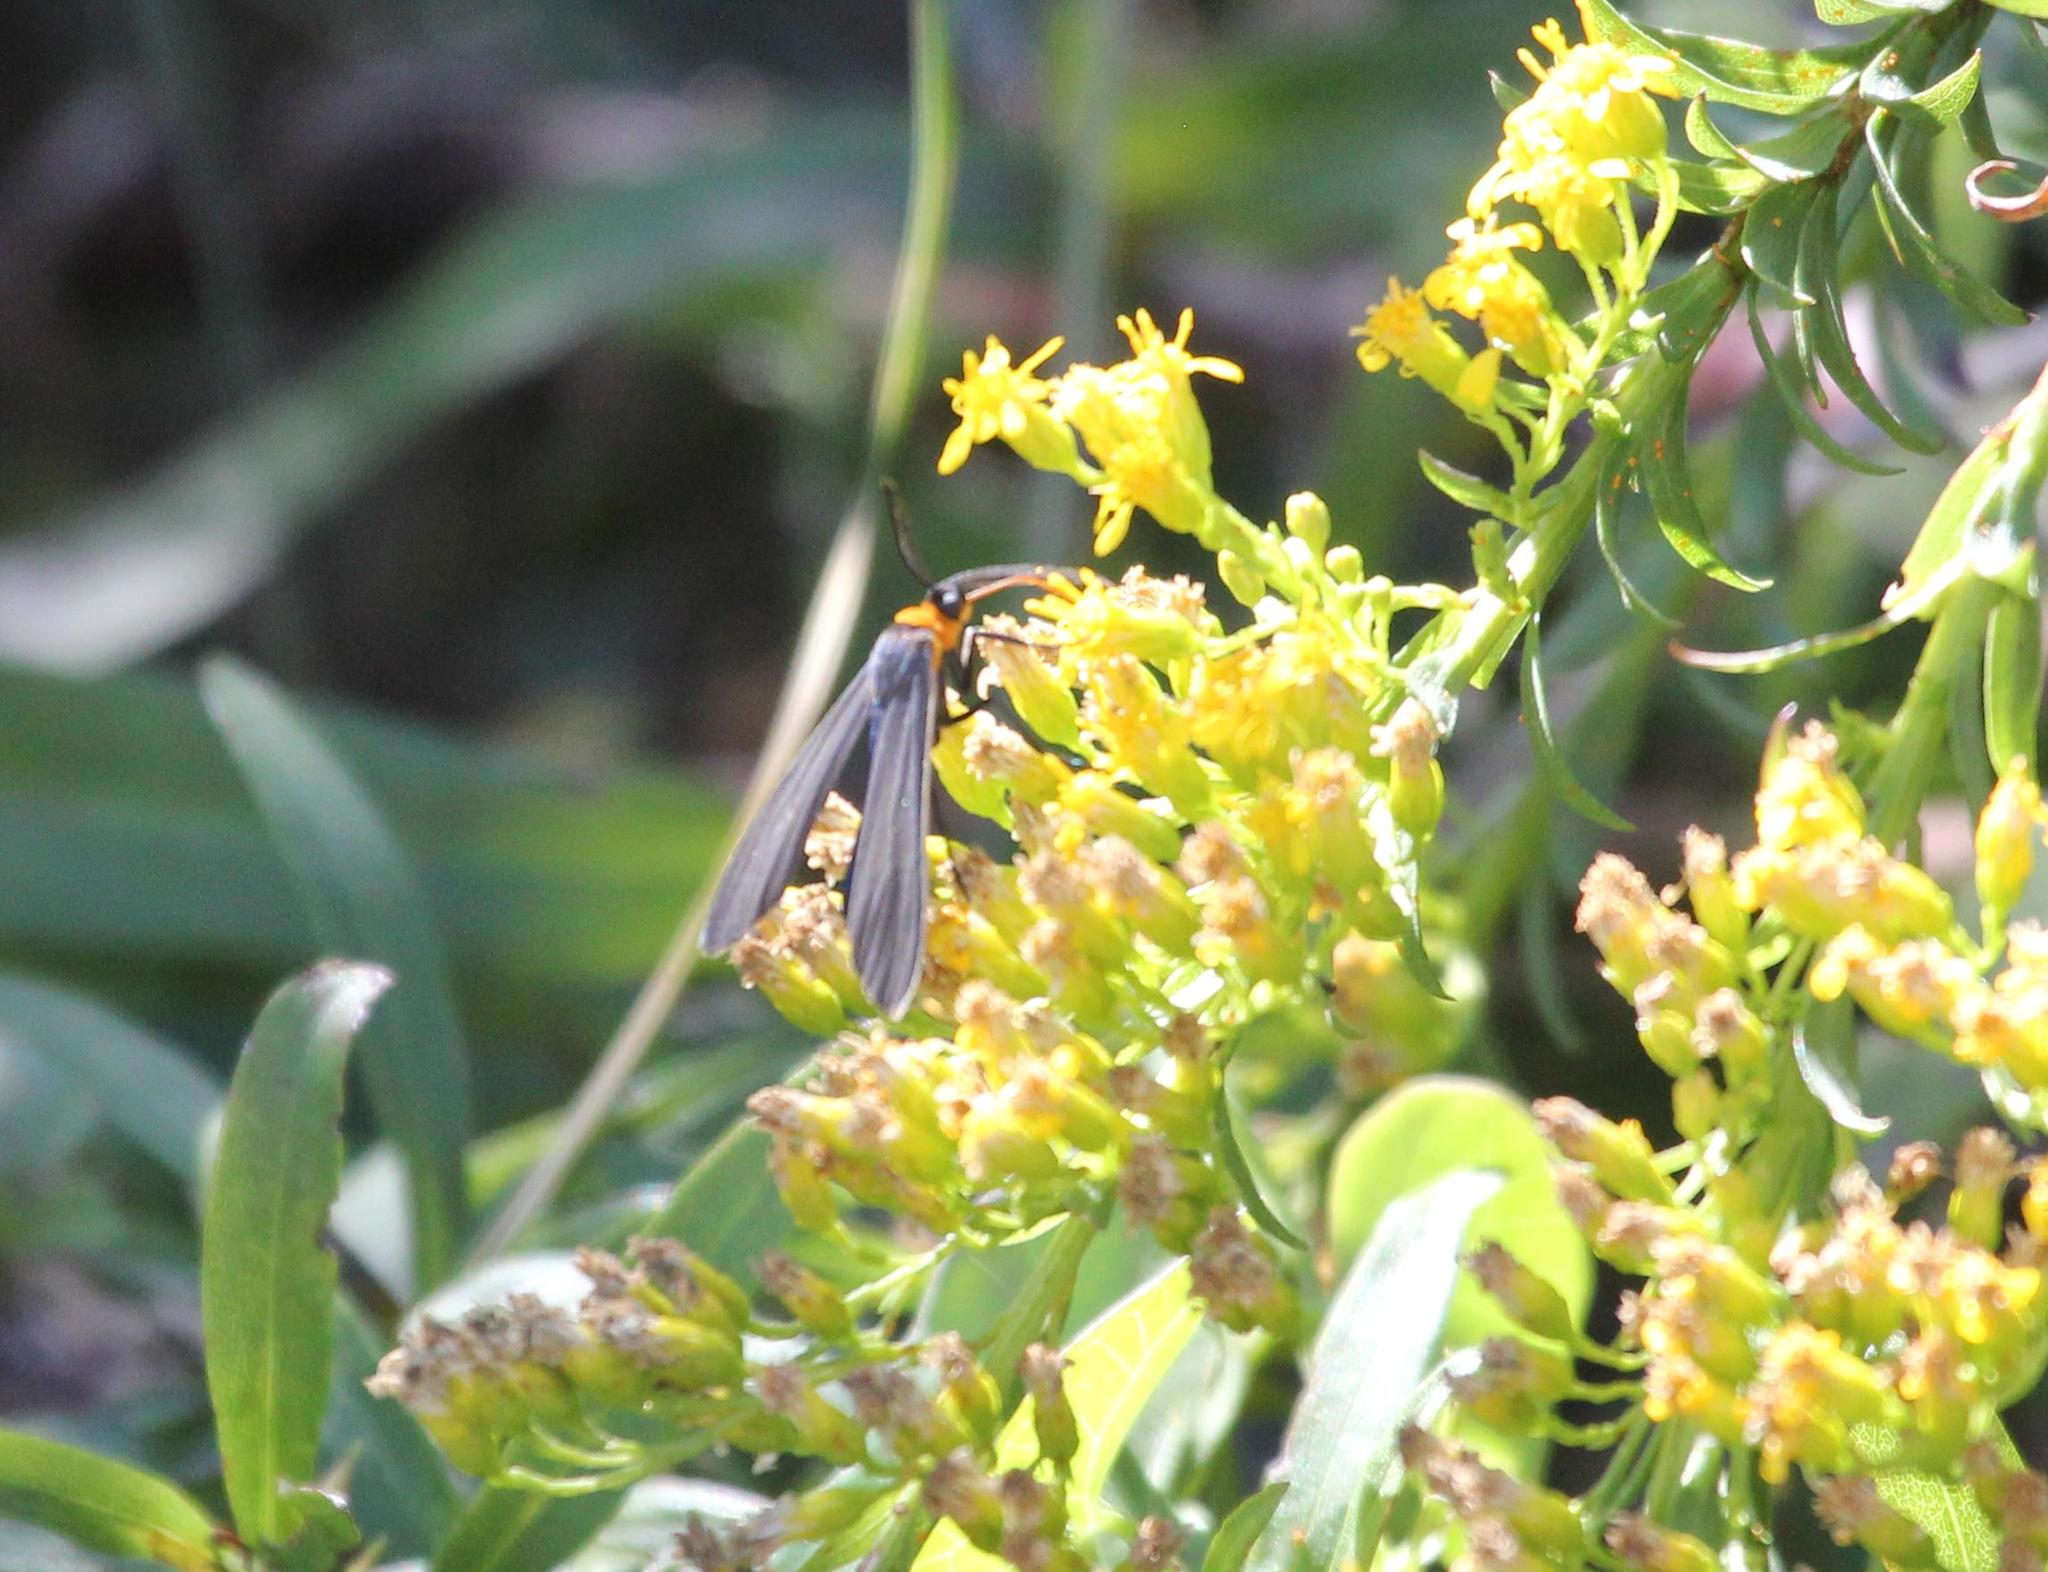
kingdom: Animalia
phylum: Arthropoda
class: Insecta
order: Lepidoptera
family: Erebidae
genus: Cisseps
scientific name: Cisseps fulvicollis
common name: Yellow-collared scape moth
